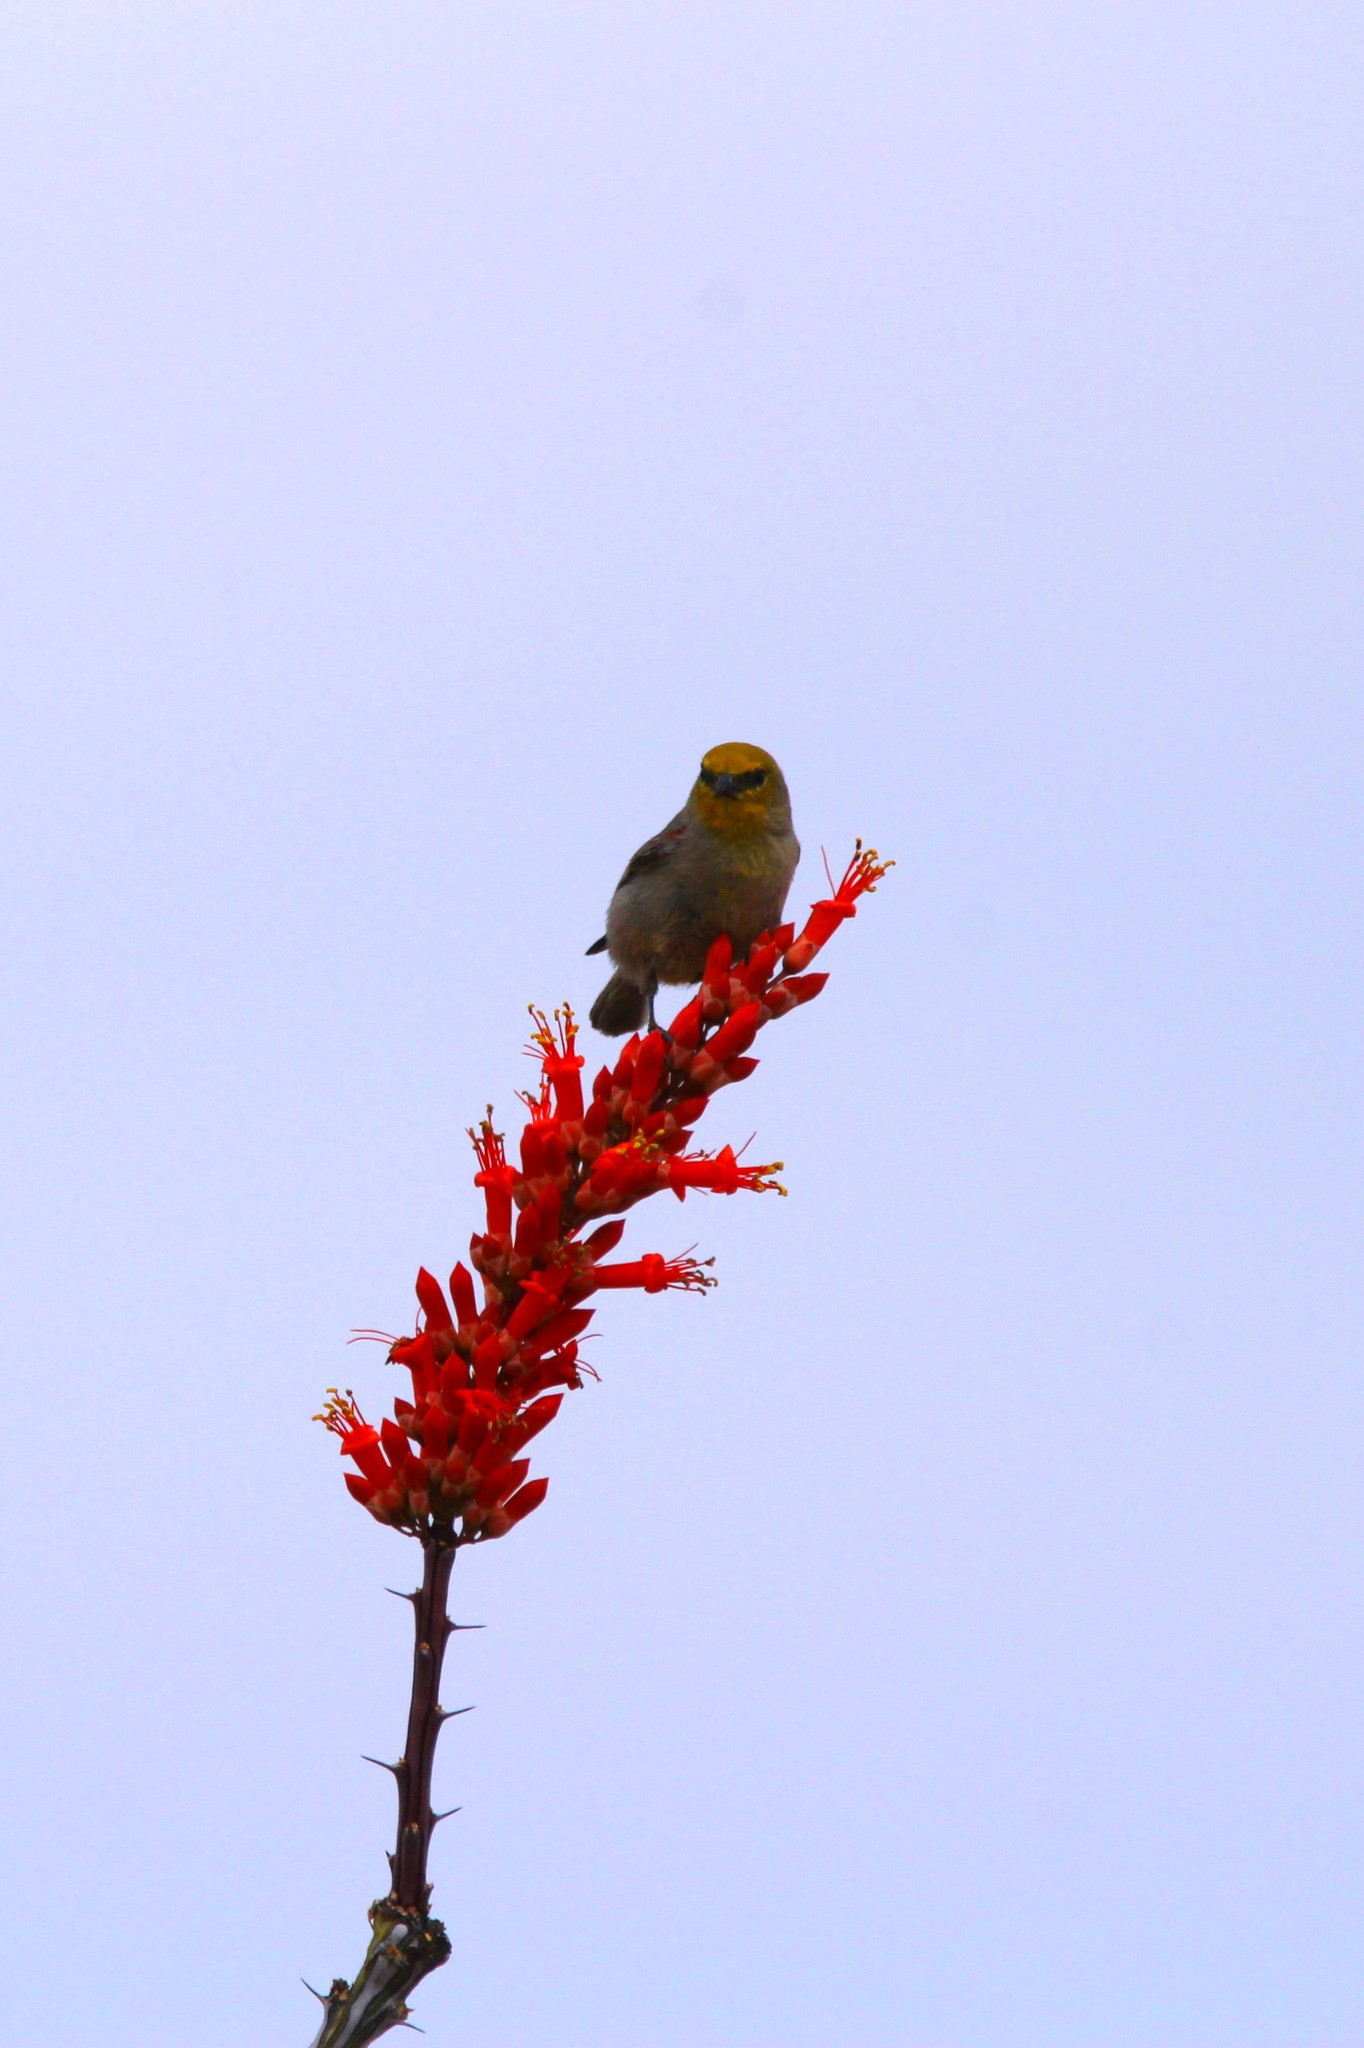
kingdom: Animalia
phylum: Chordata
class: Aves
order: Passeriformes
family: Remizidae
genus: Auriparus
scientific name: Auriparus flaviceps
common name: Verdin
